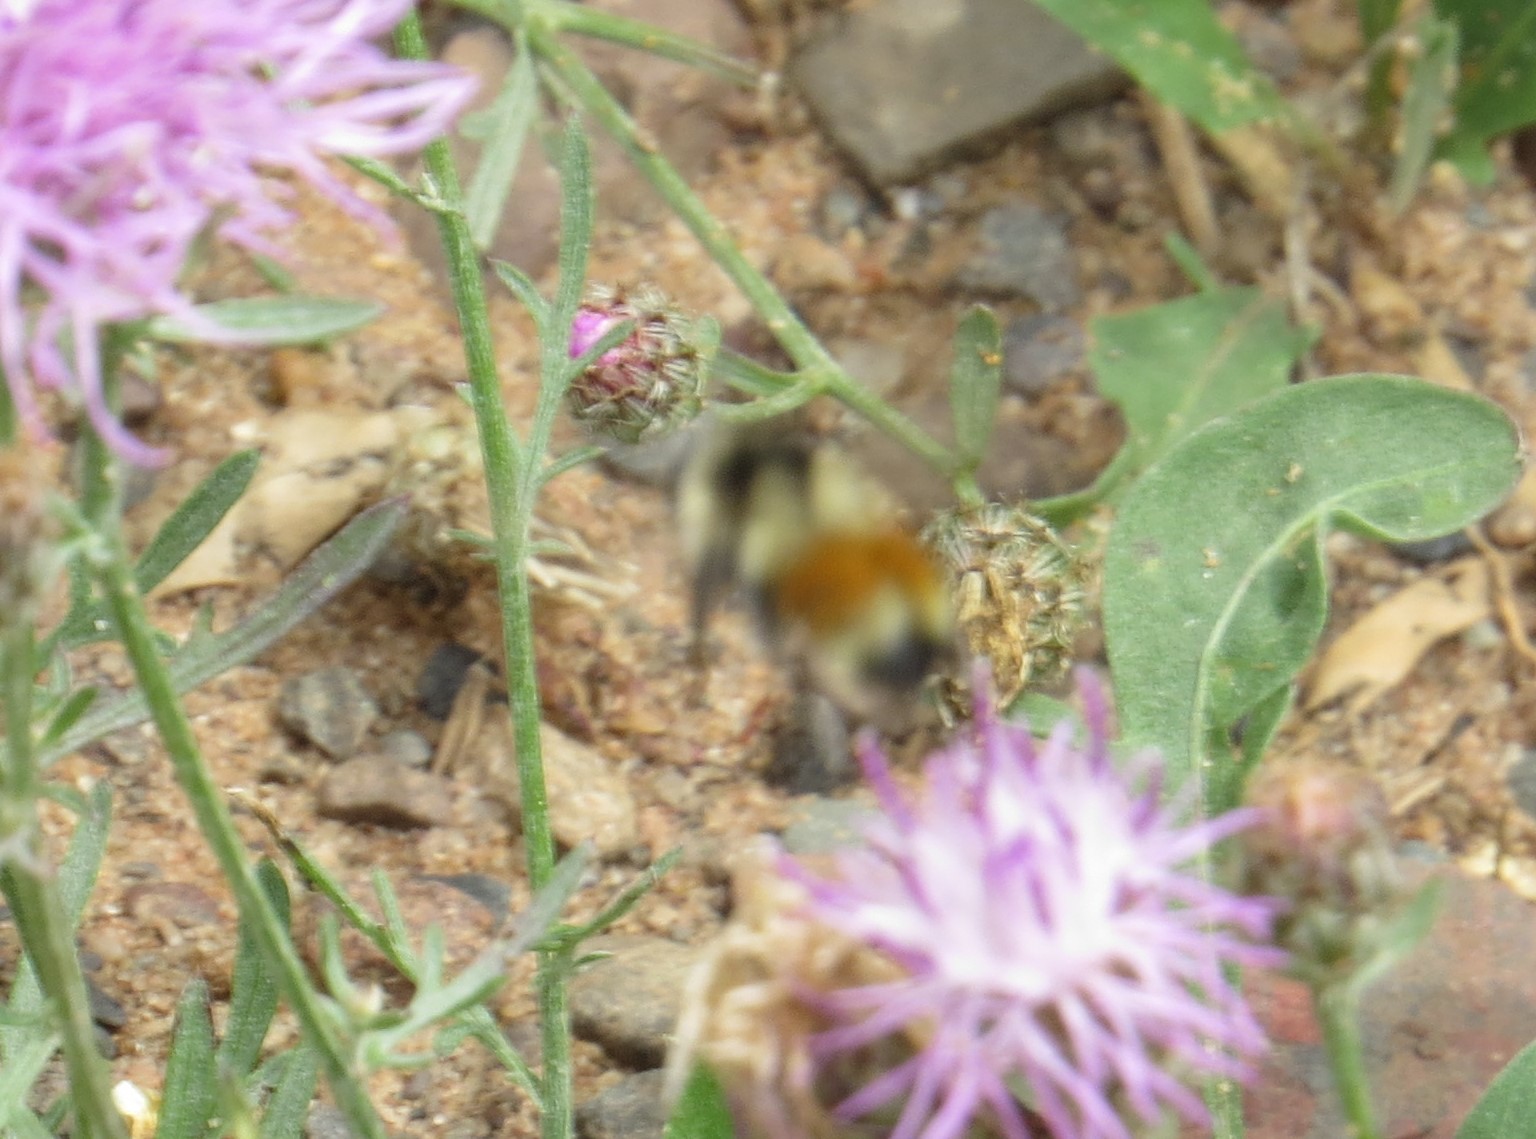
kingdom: Animalia
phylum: Arthropoda
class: Insecta
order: Hymenoptera
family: Apidae
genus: Bombus
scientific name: Bombus ternarius
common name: Tri-colored bumble bee
